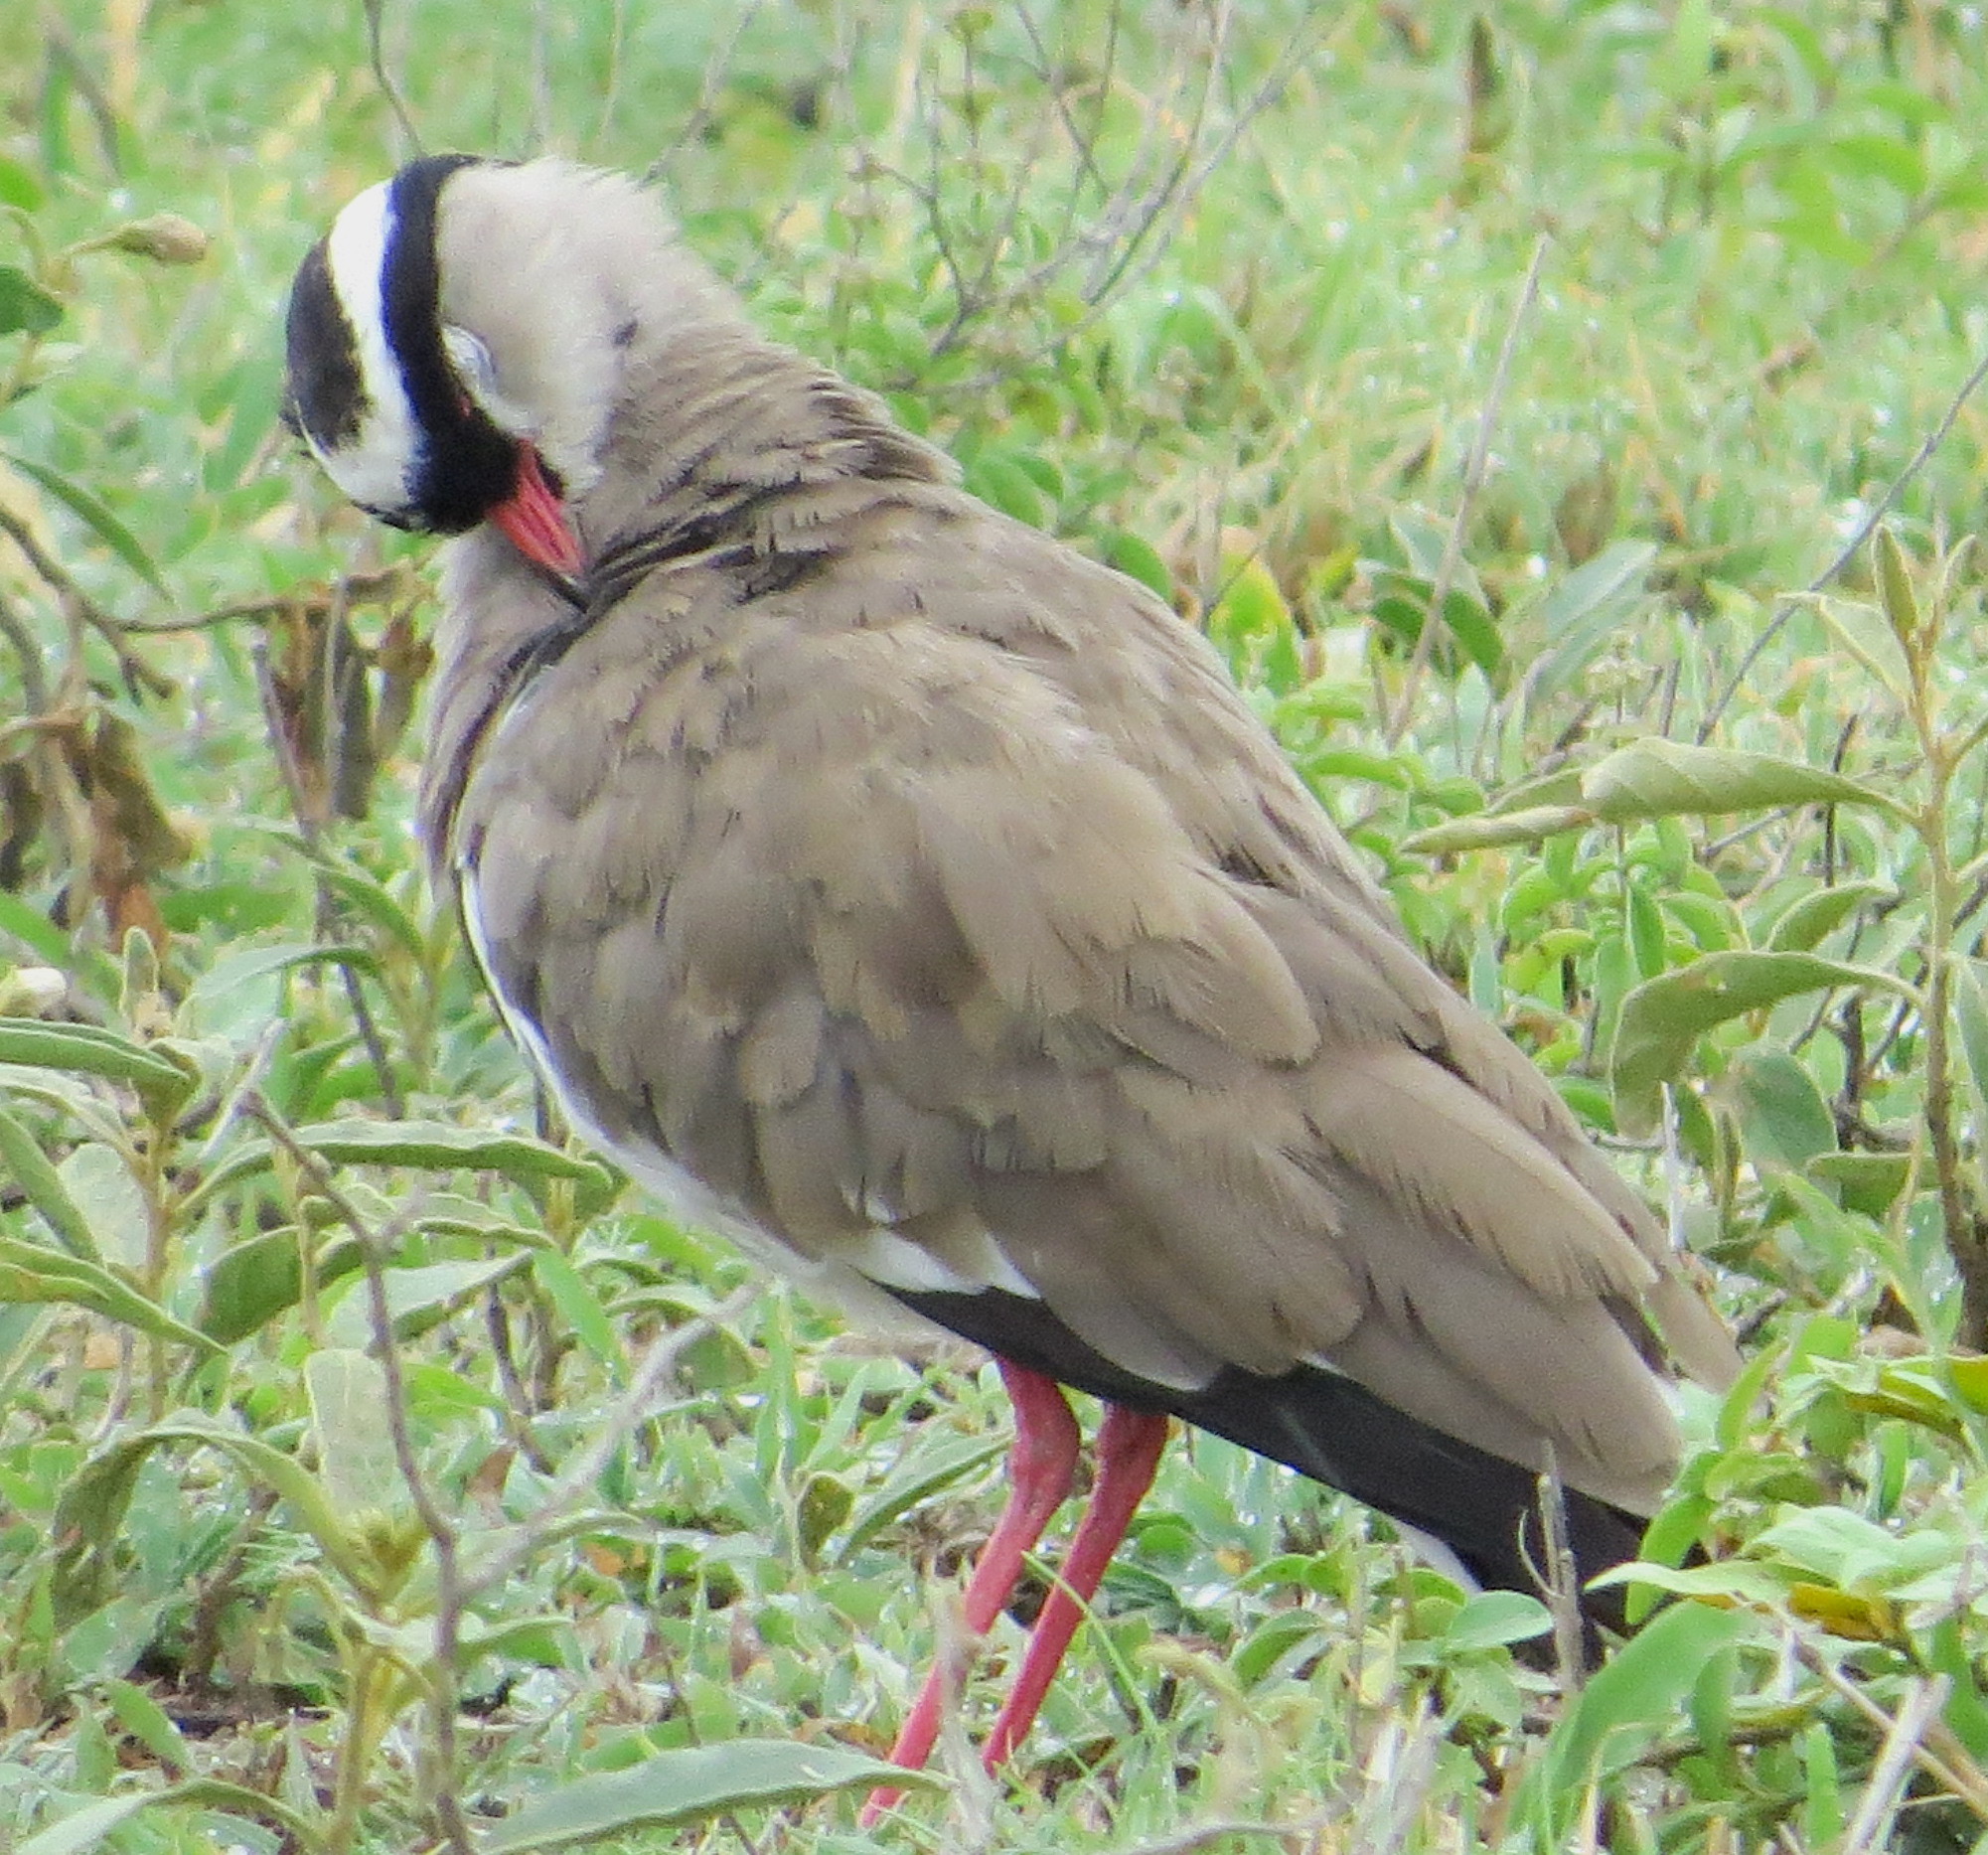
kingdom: Animalia
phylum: Chordata
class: Aves
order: Charadriiformes
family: Charadriidae
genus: Vanellus
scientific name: Vanellus coronatus
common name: Crowned lapwing
